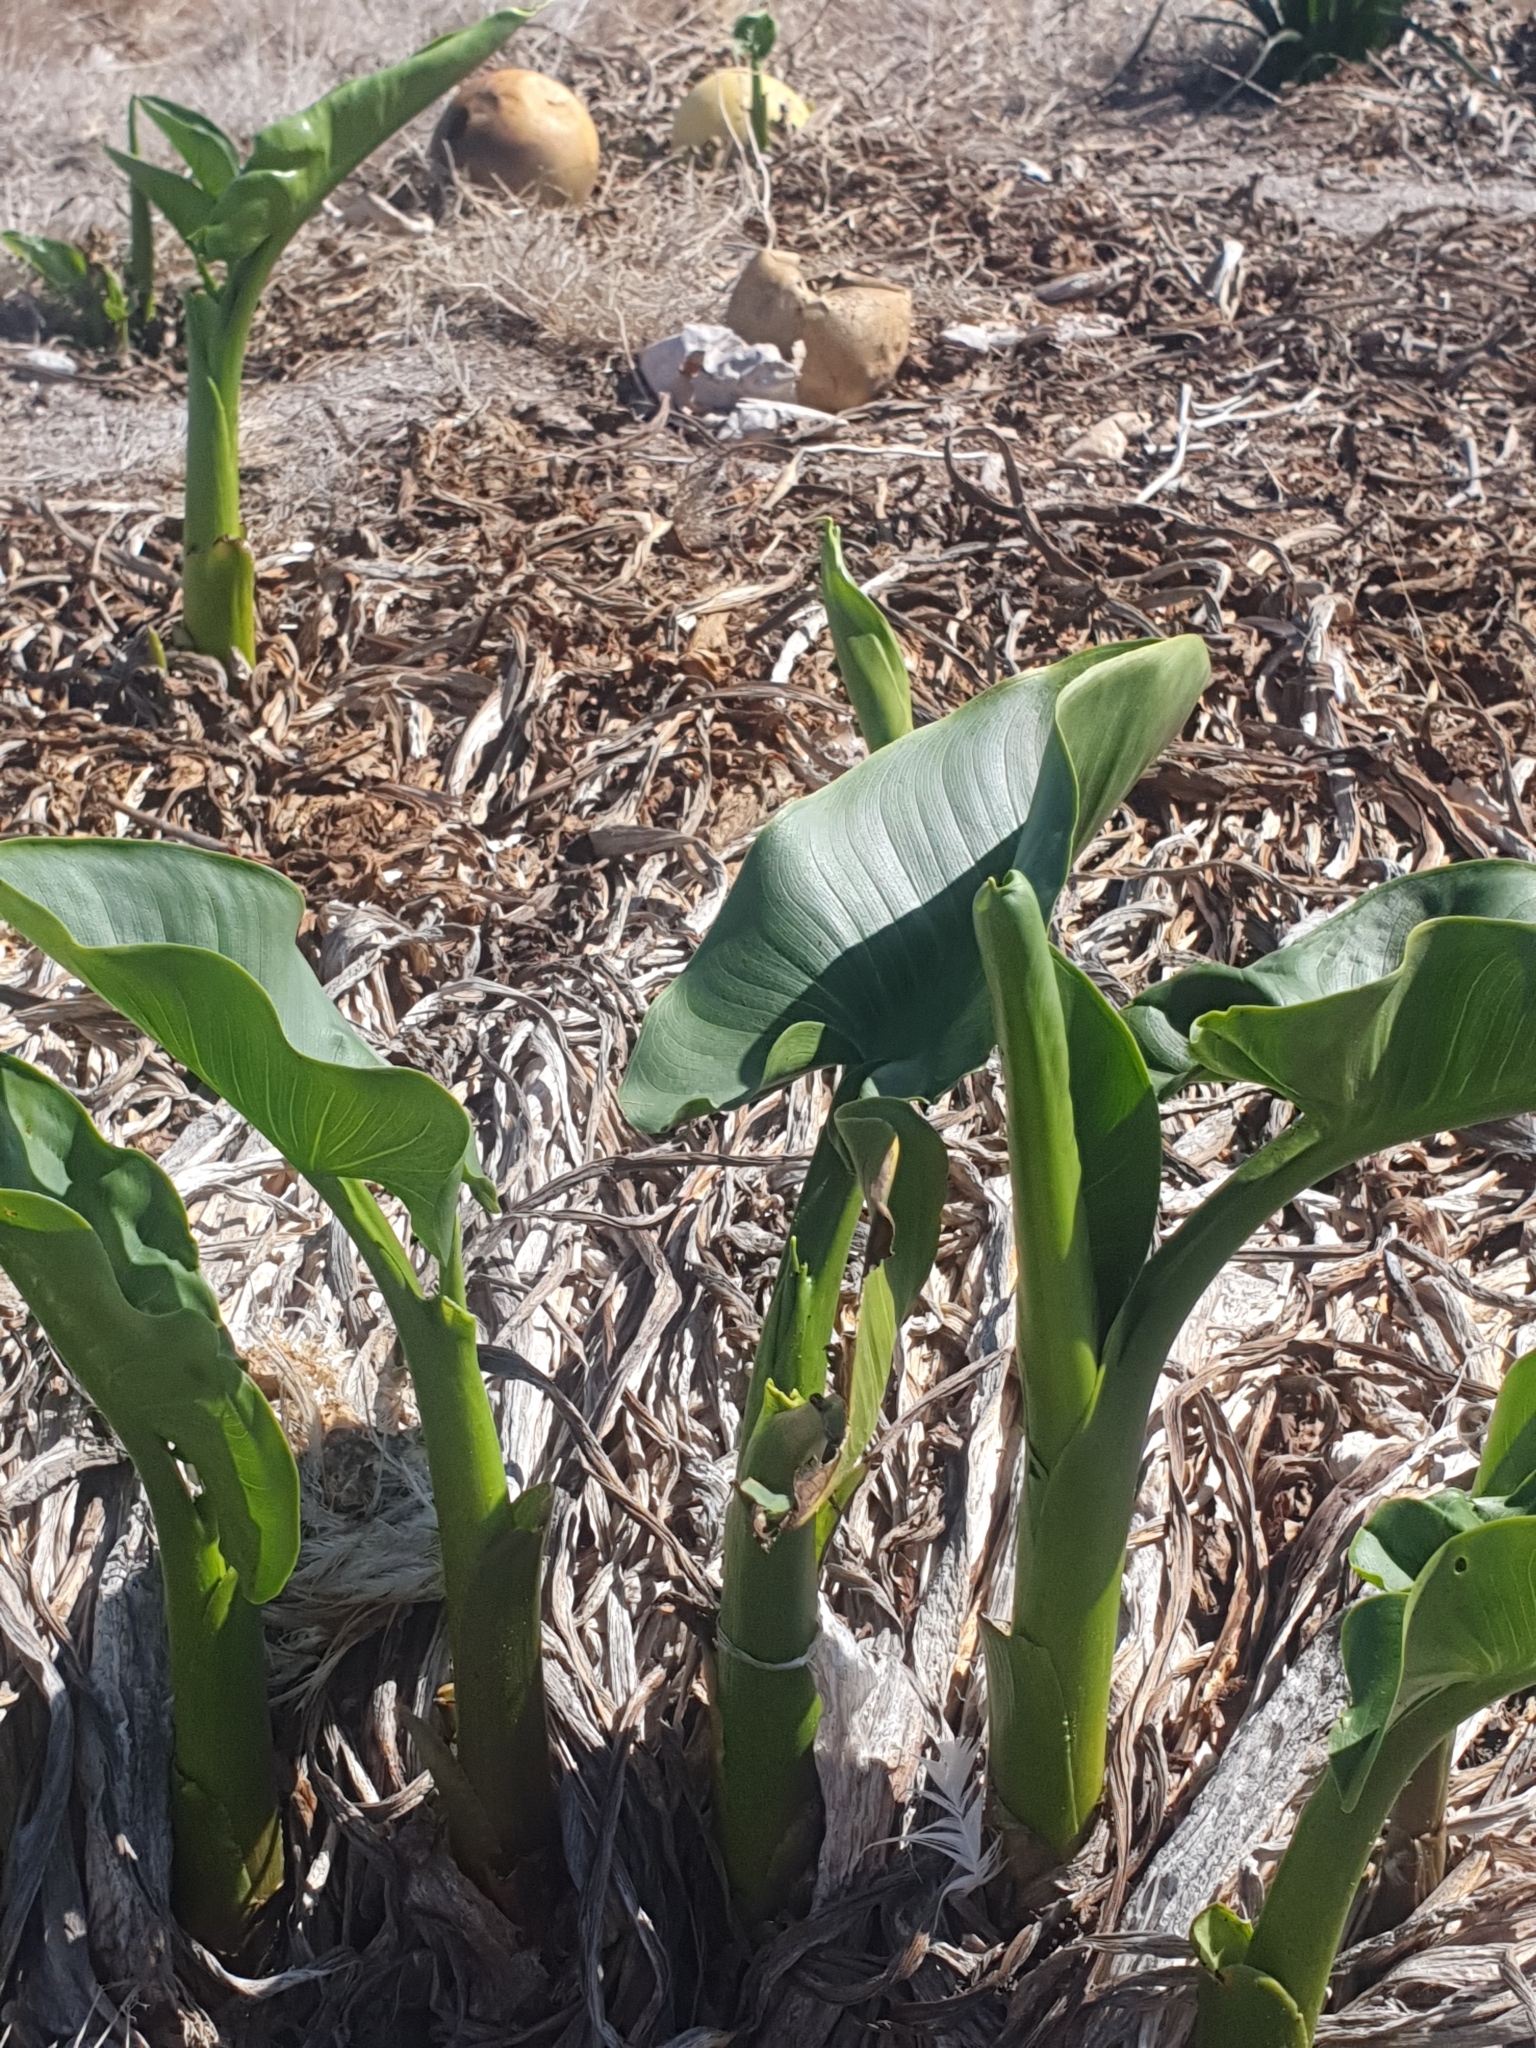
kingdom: Plantae
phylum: Tracheophyta
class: Liliopsida
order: Alismatales
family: Araceae
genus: Zantedeschia
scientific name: Zantedeschia aethiopica
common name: Altar-lily
